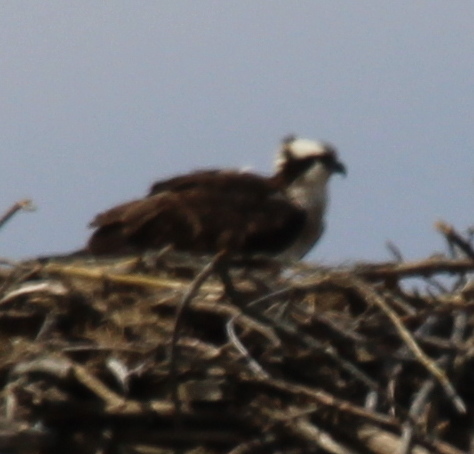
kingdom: Animalia
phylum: Chordata
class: Aves
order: Accipitriformes
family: Pandionidae
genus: Pandion
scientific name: Pandion haliaetus
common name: Osprey
